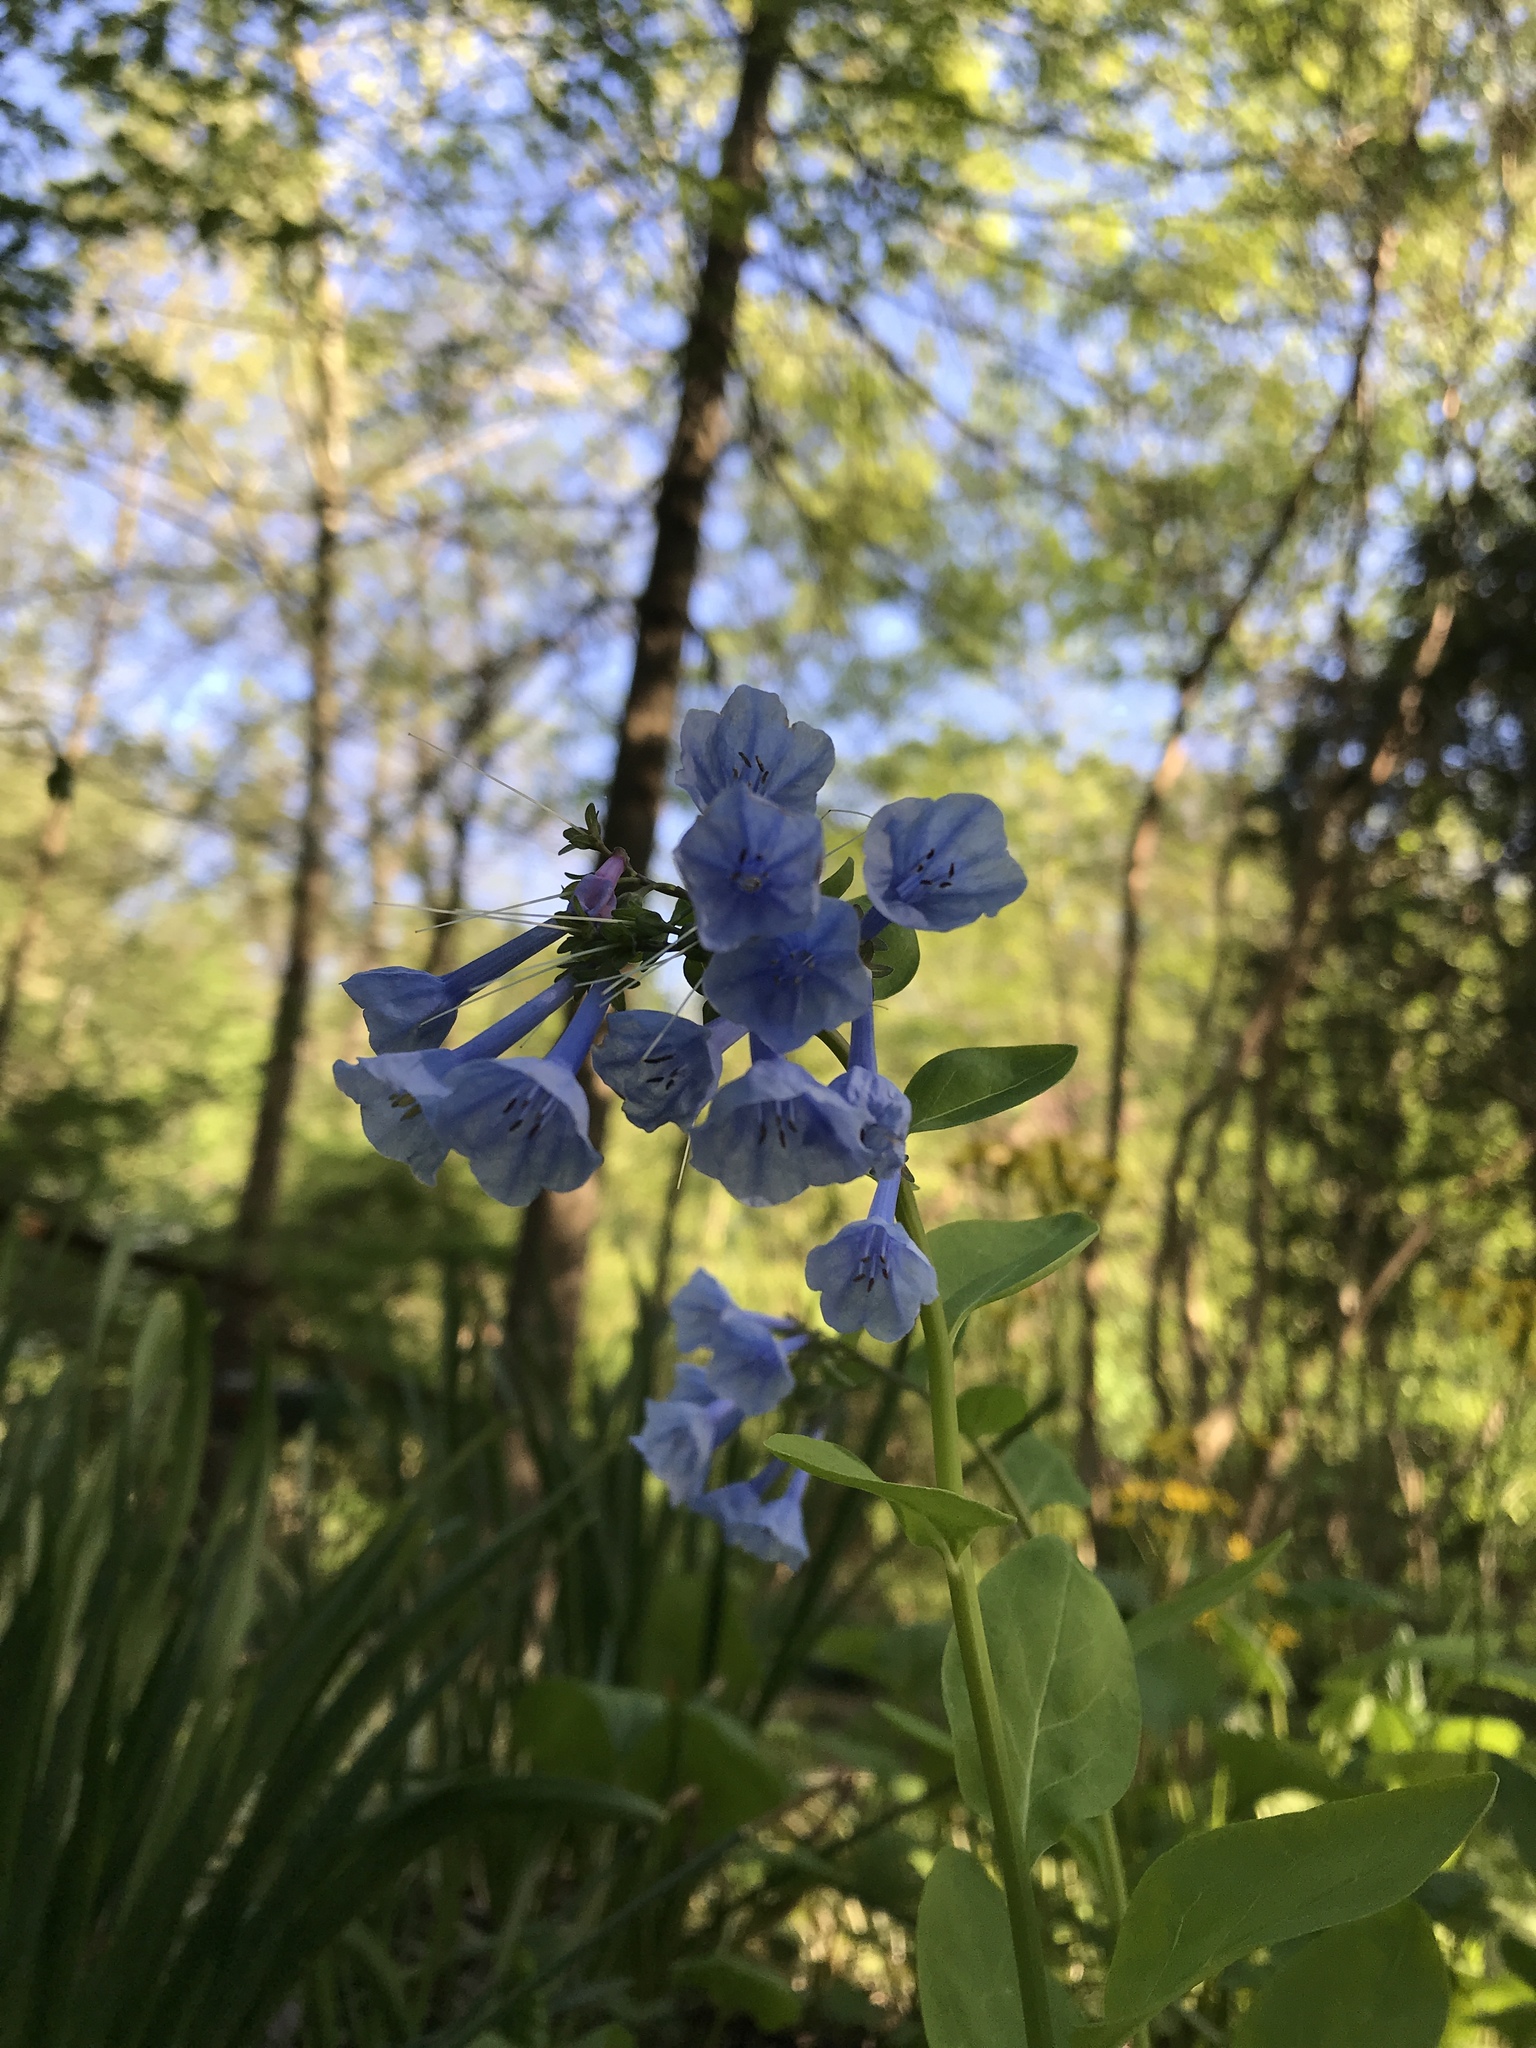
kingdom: Plantae
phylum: Tracheophyta
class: Magnoliopsida
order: Boraginales
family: Boraginaceae
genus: Mertensia
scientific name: Mertensia virginica
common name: Virginia bluebells
